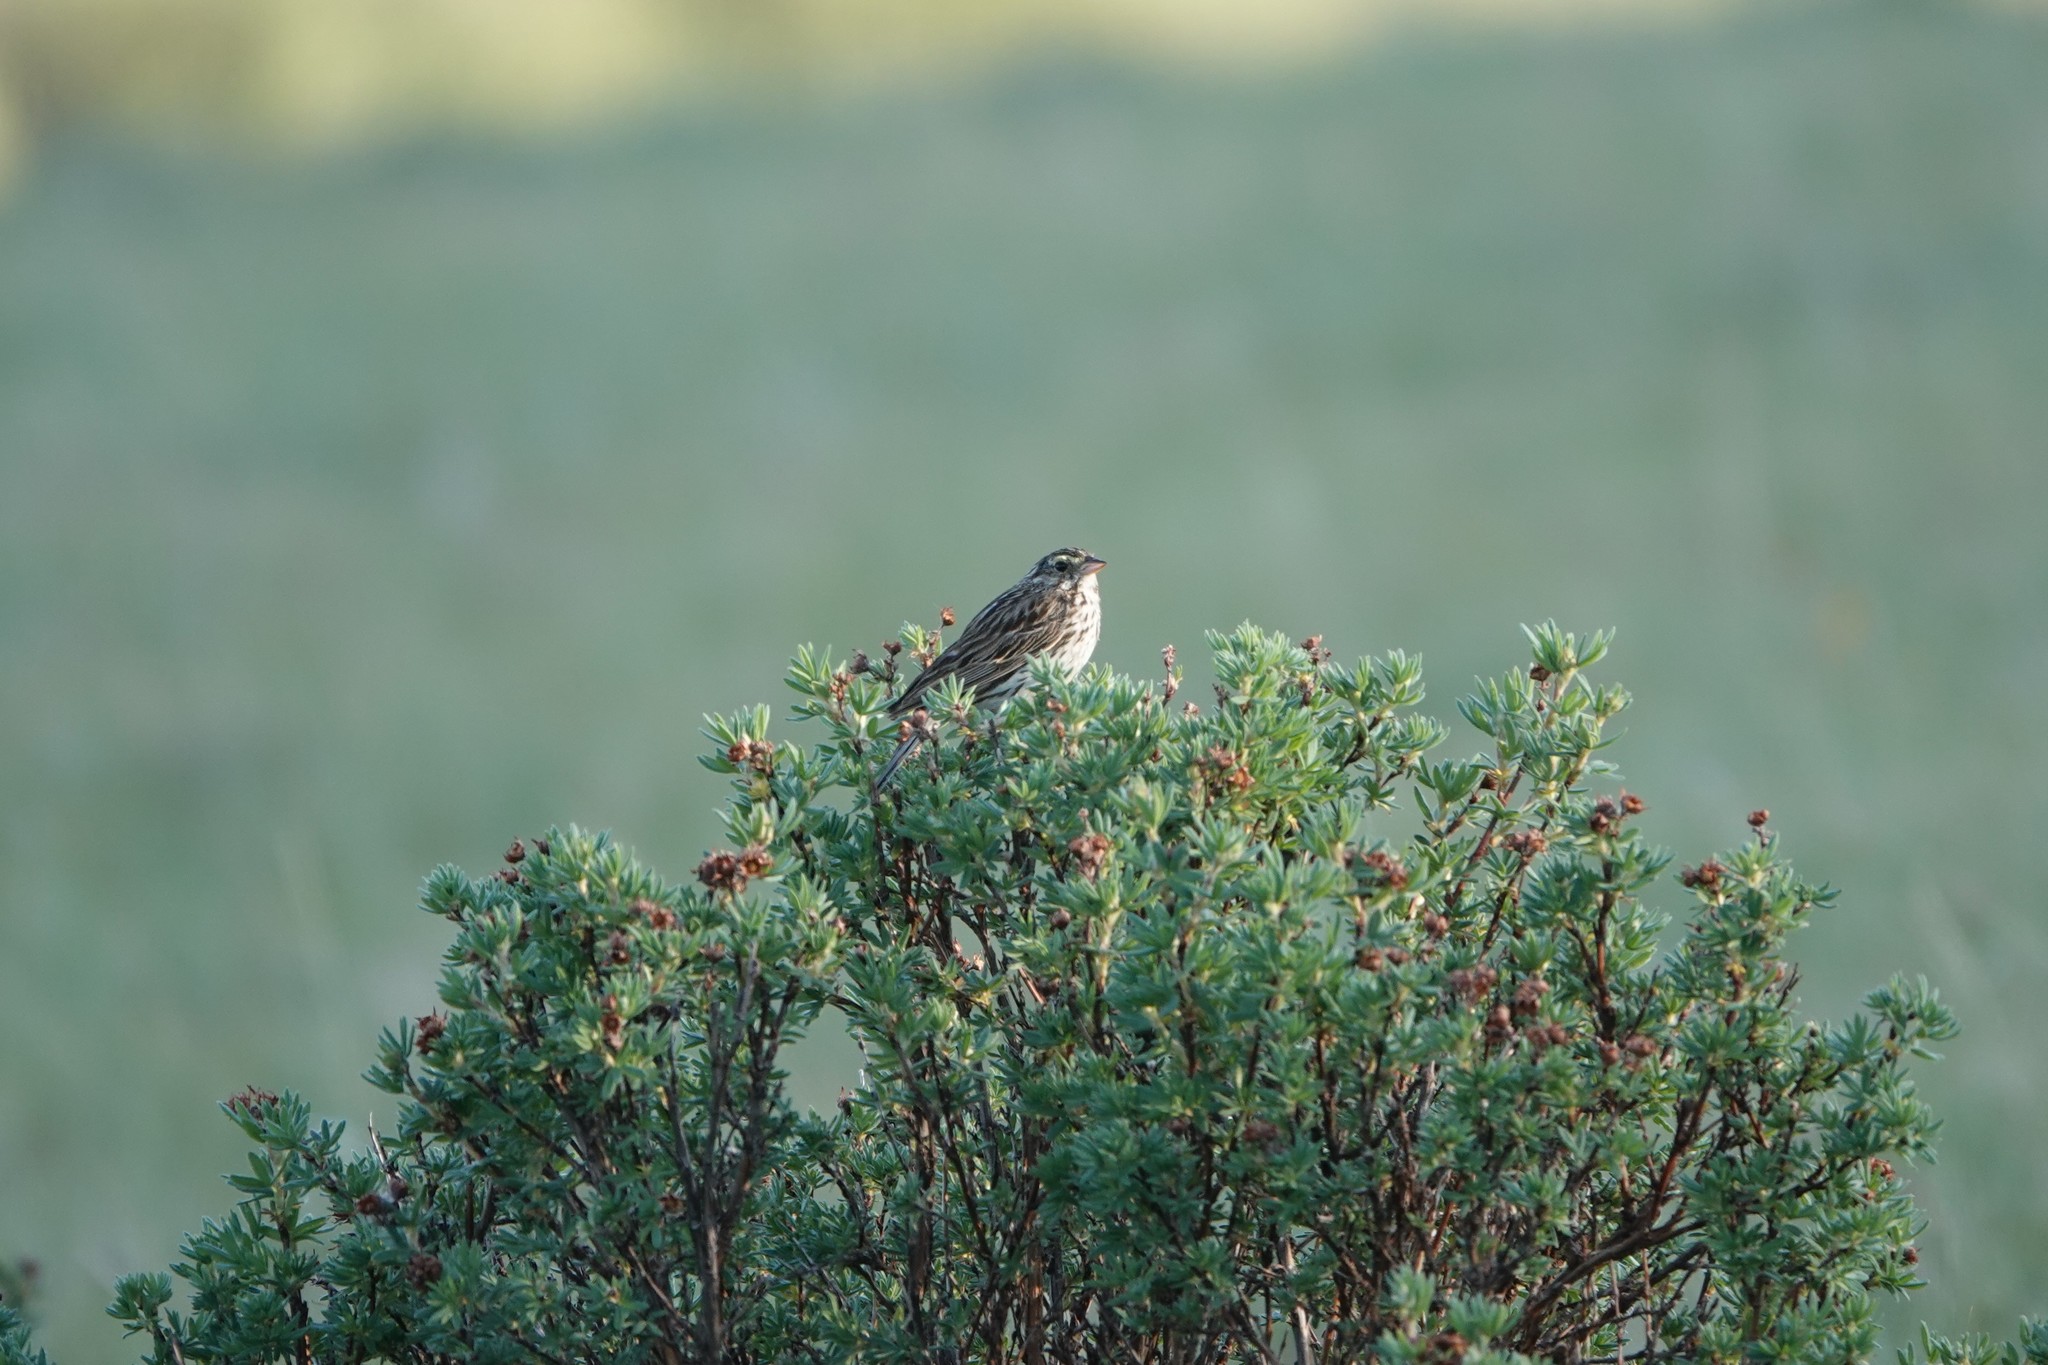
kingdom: Animalia
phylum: Chordata
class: Aves
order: Passeriformes
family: Passerellidae
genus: Passerculus
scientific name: Passerculus sandwichensis
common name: Savannah sparrow
